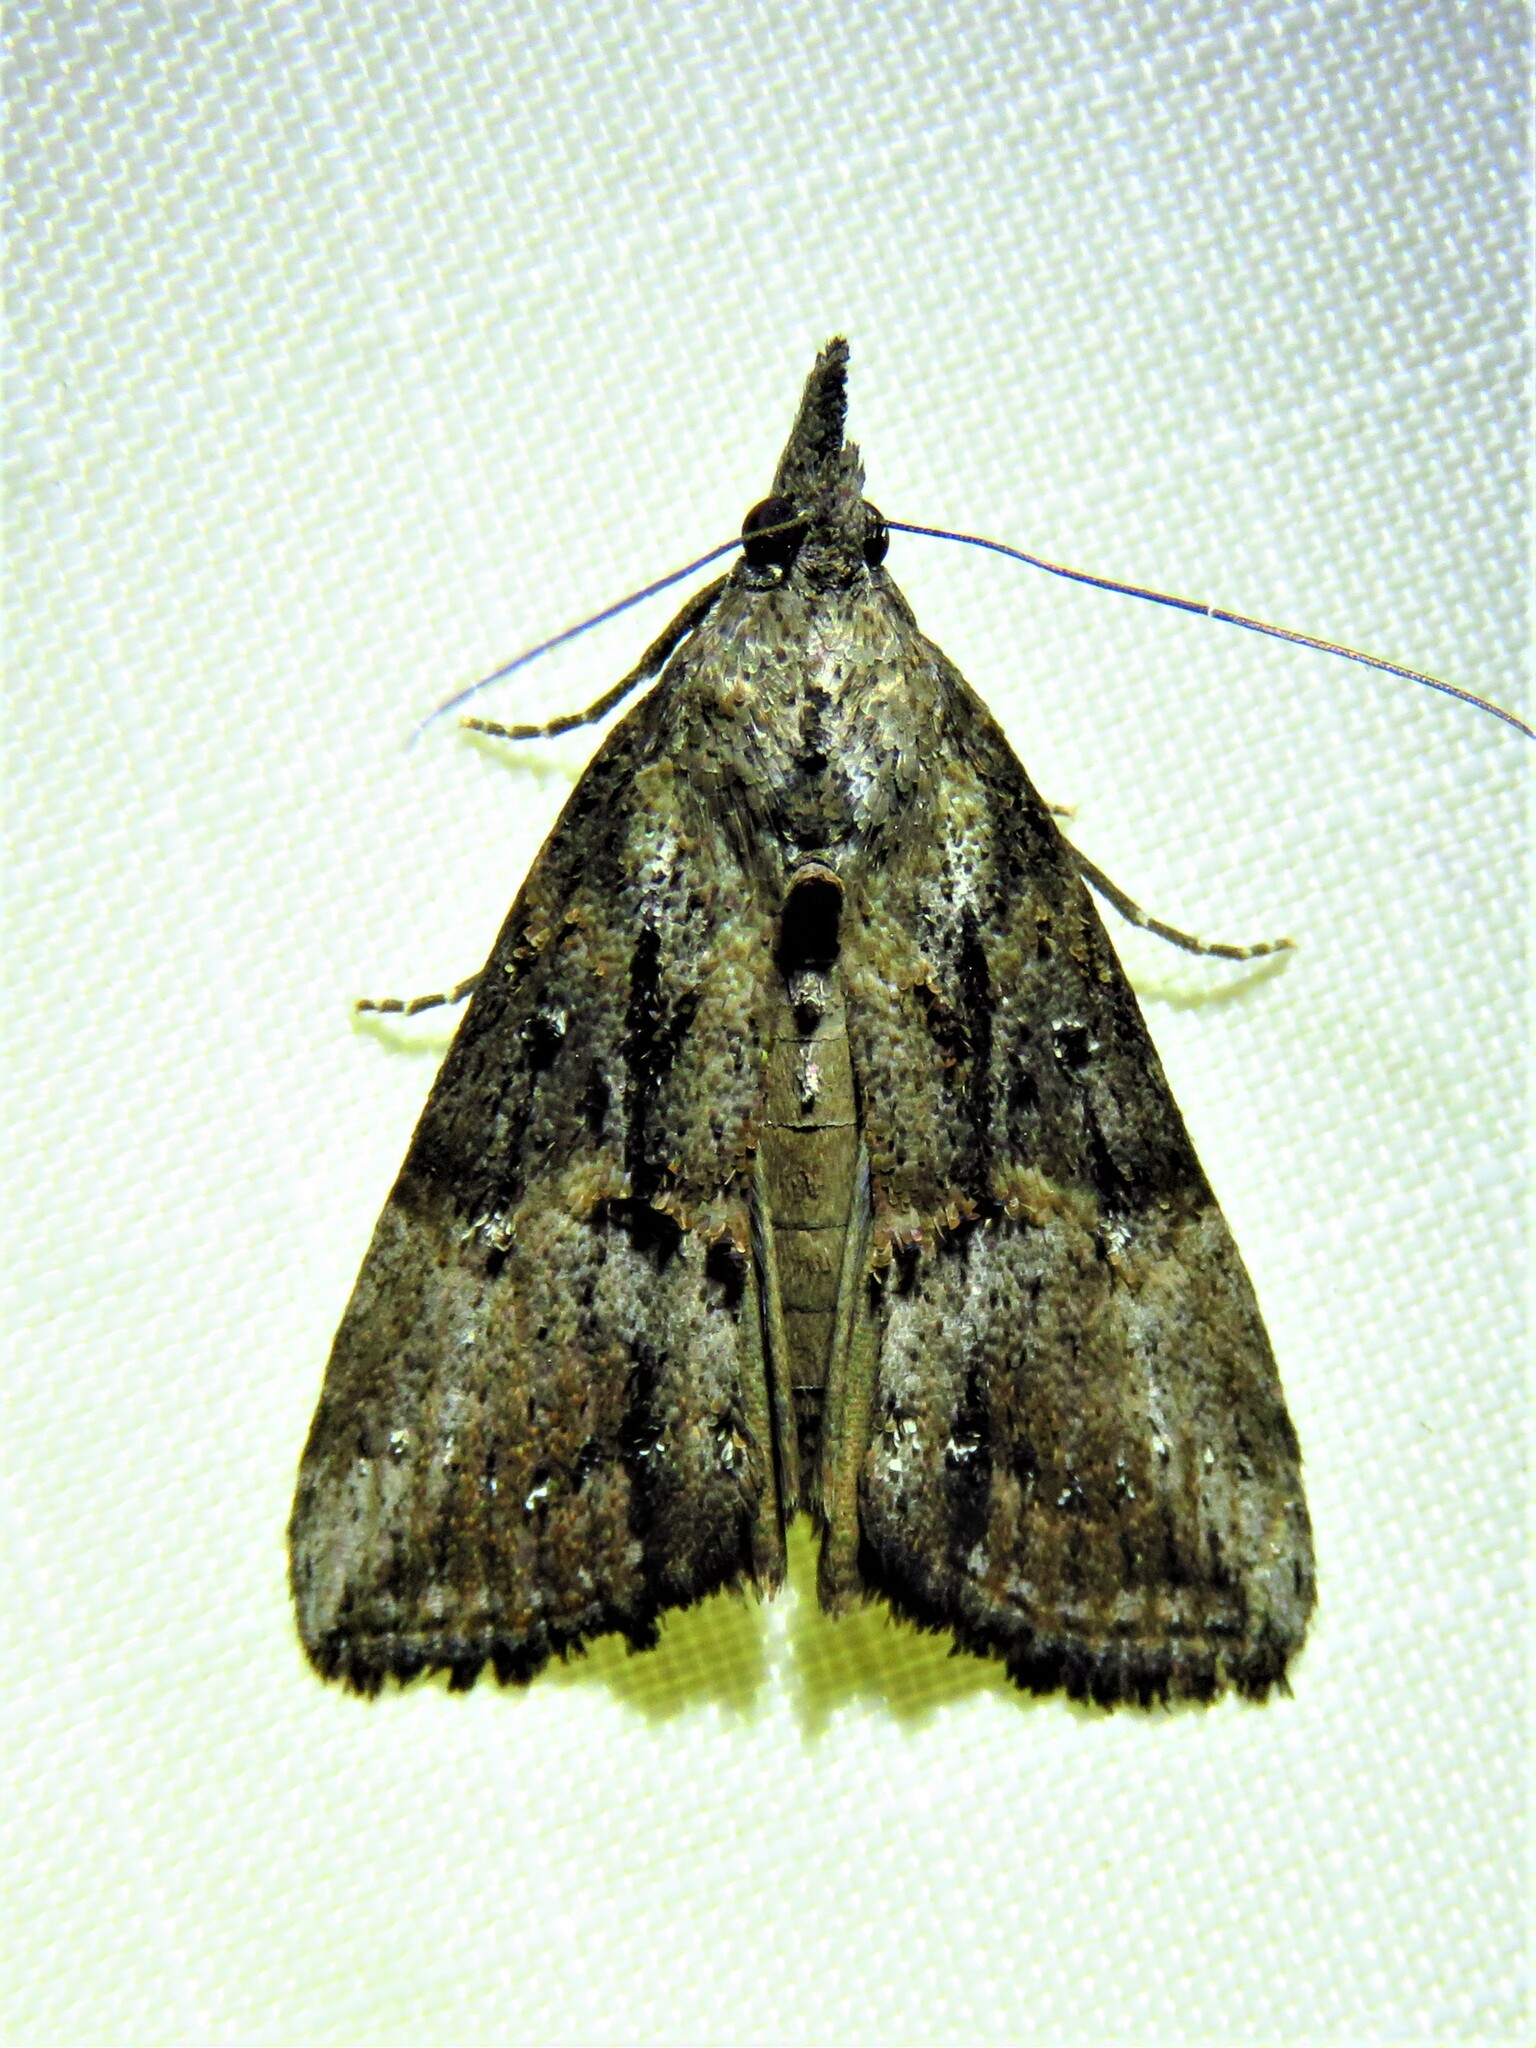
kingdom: Animalia
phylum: Arthropoda
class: Insecta
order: Lepidoptera
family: Erebidae
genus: Hypena
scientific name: Hypena scabra
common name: Green cloverworm
